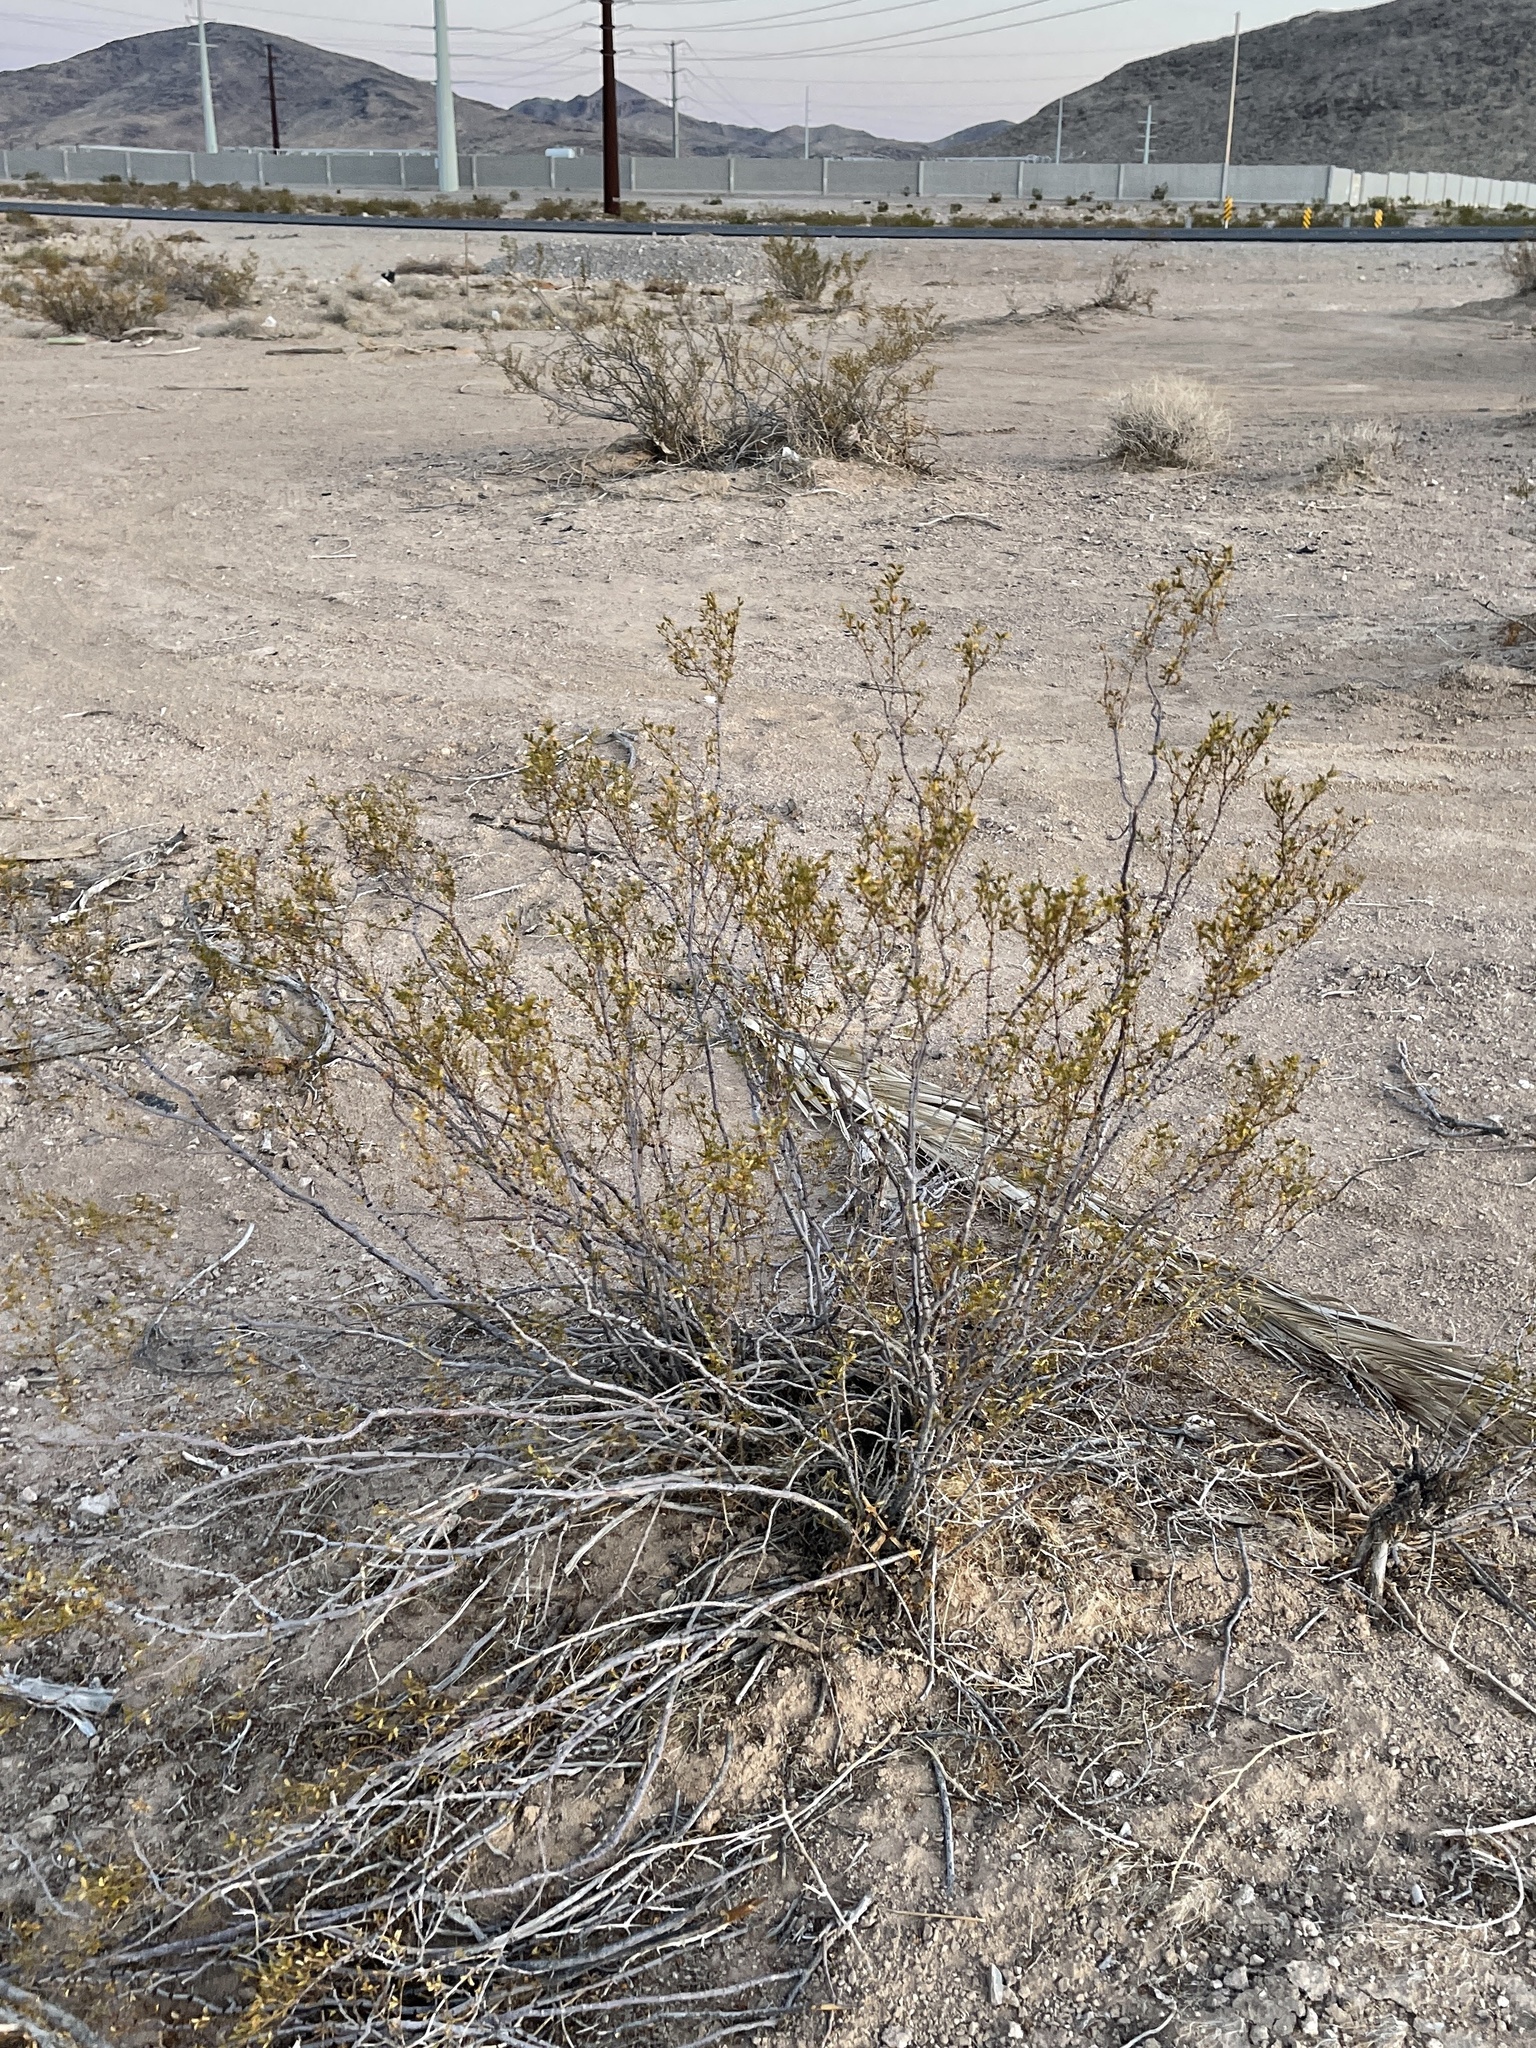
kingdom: Plantae
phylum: Tracheophyta
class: Magnoliopsida
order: Zygophyllales
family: Zygophyllaceae
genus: Larrea
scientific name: Larrea tridentata
